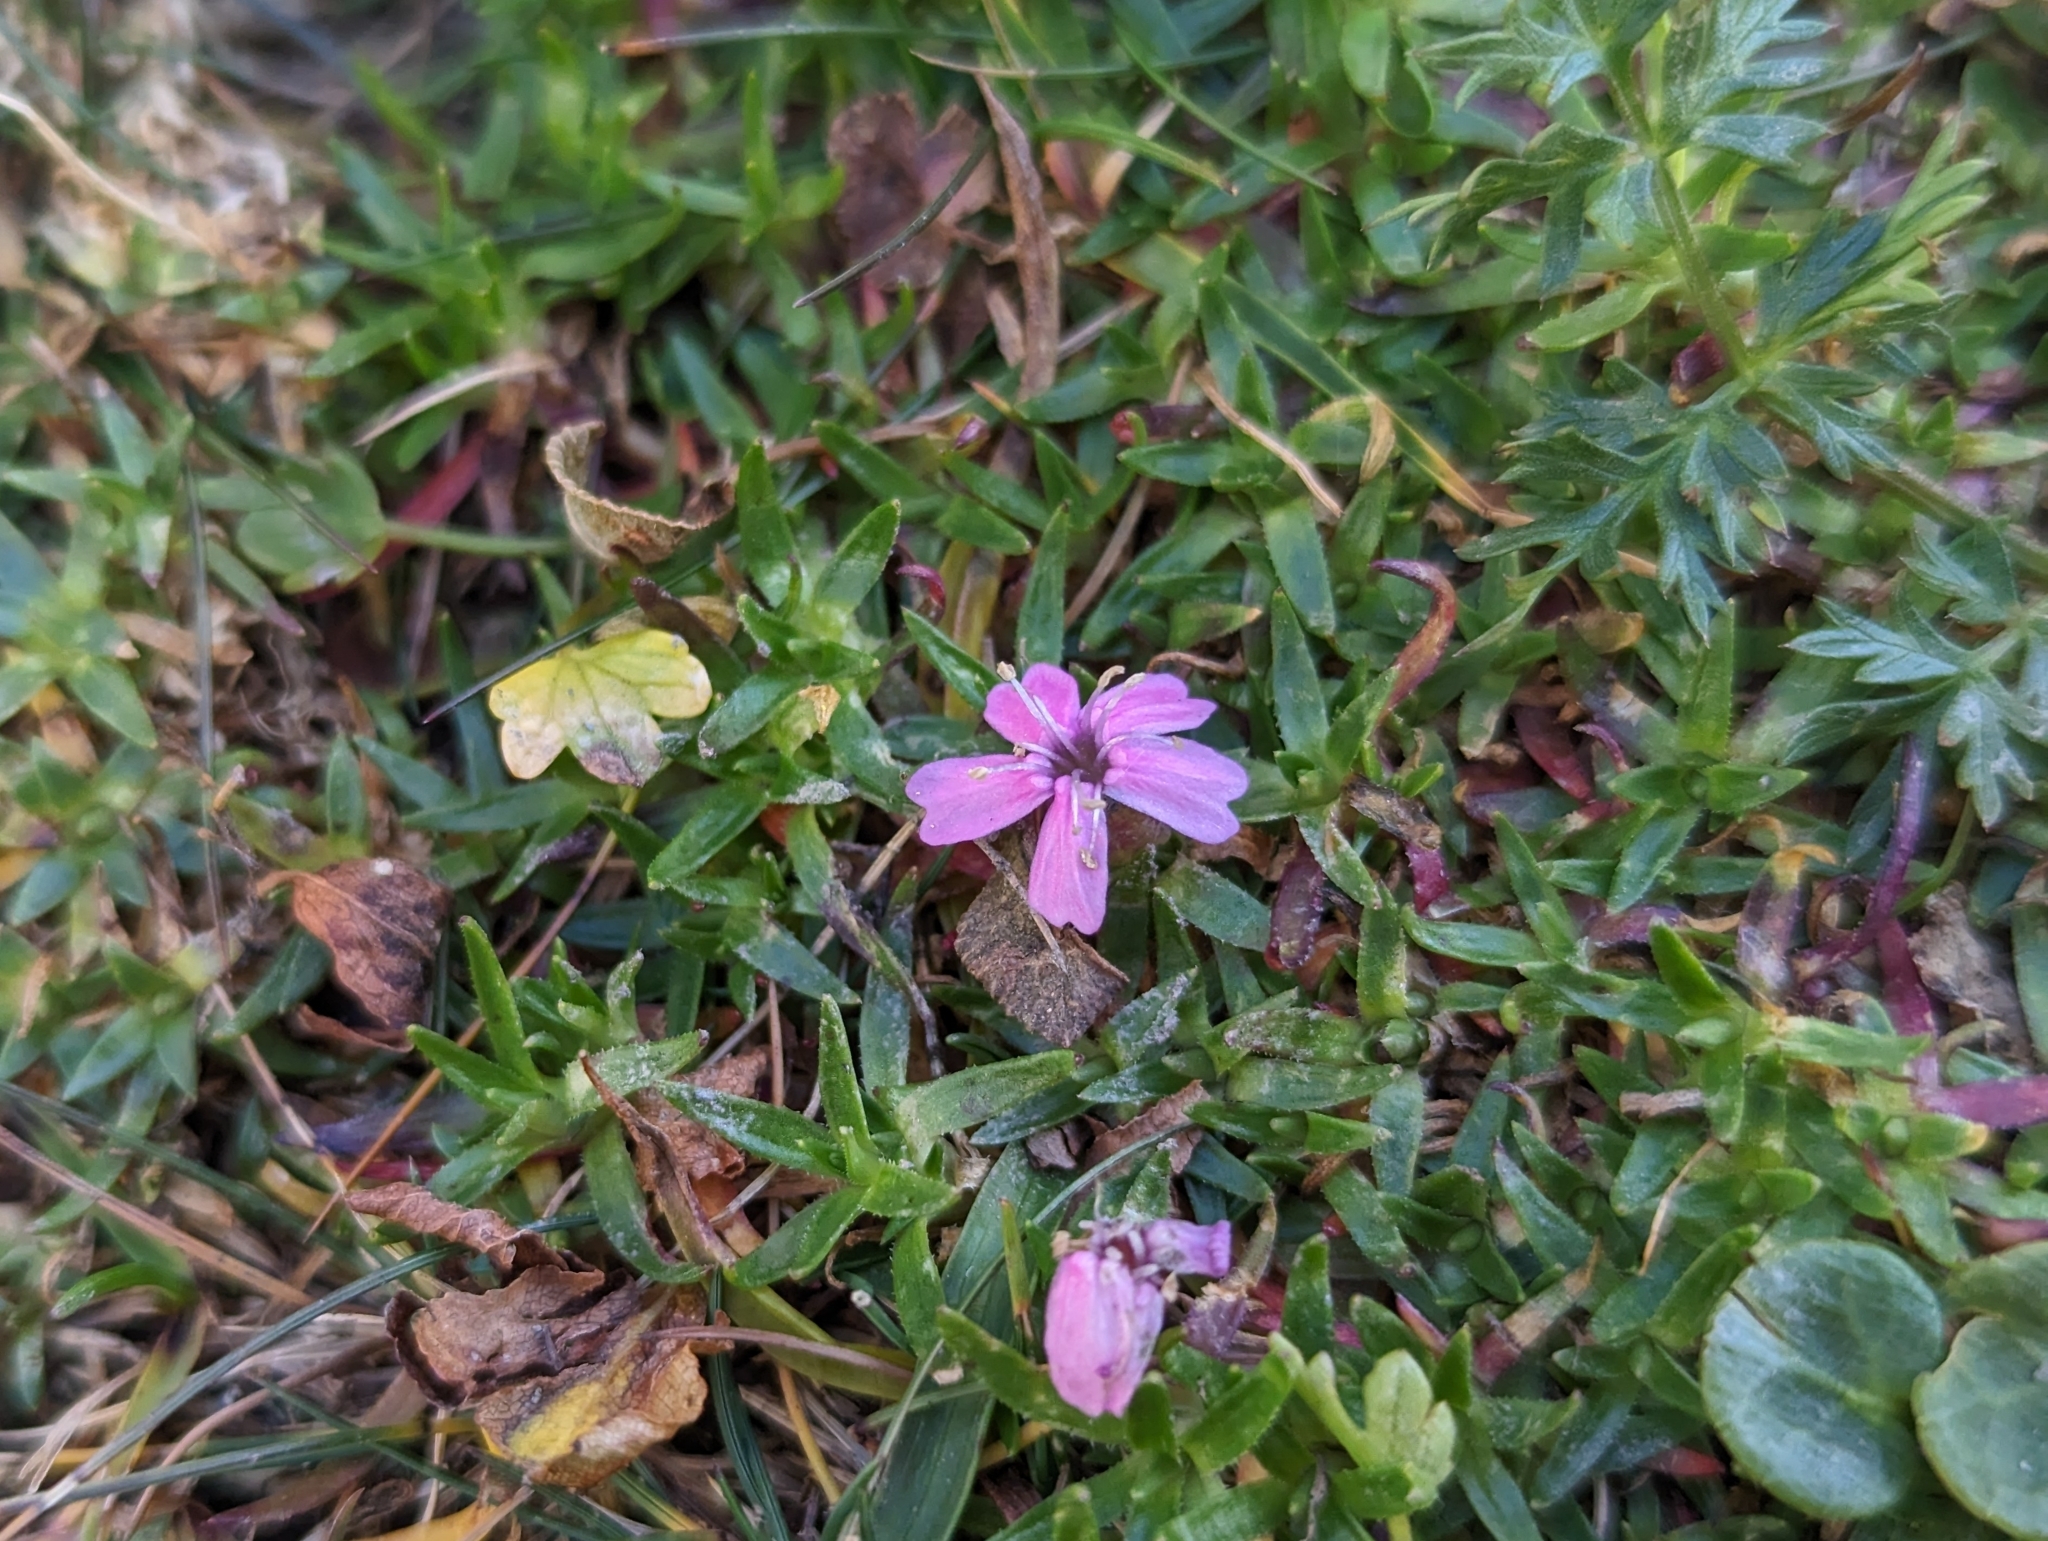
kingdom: Plantae
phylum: Tracheophyta
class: Magnoliopsida
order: Caryophyllales
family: Caryophyllaceae
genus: Silene
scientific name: Silene acaulis
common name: Moss campion
